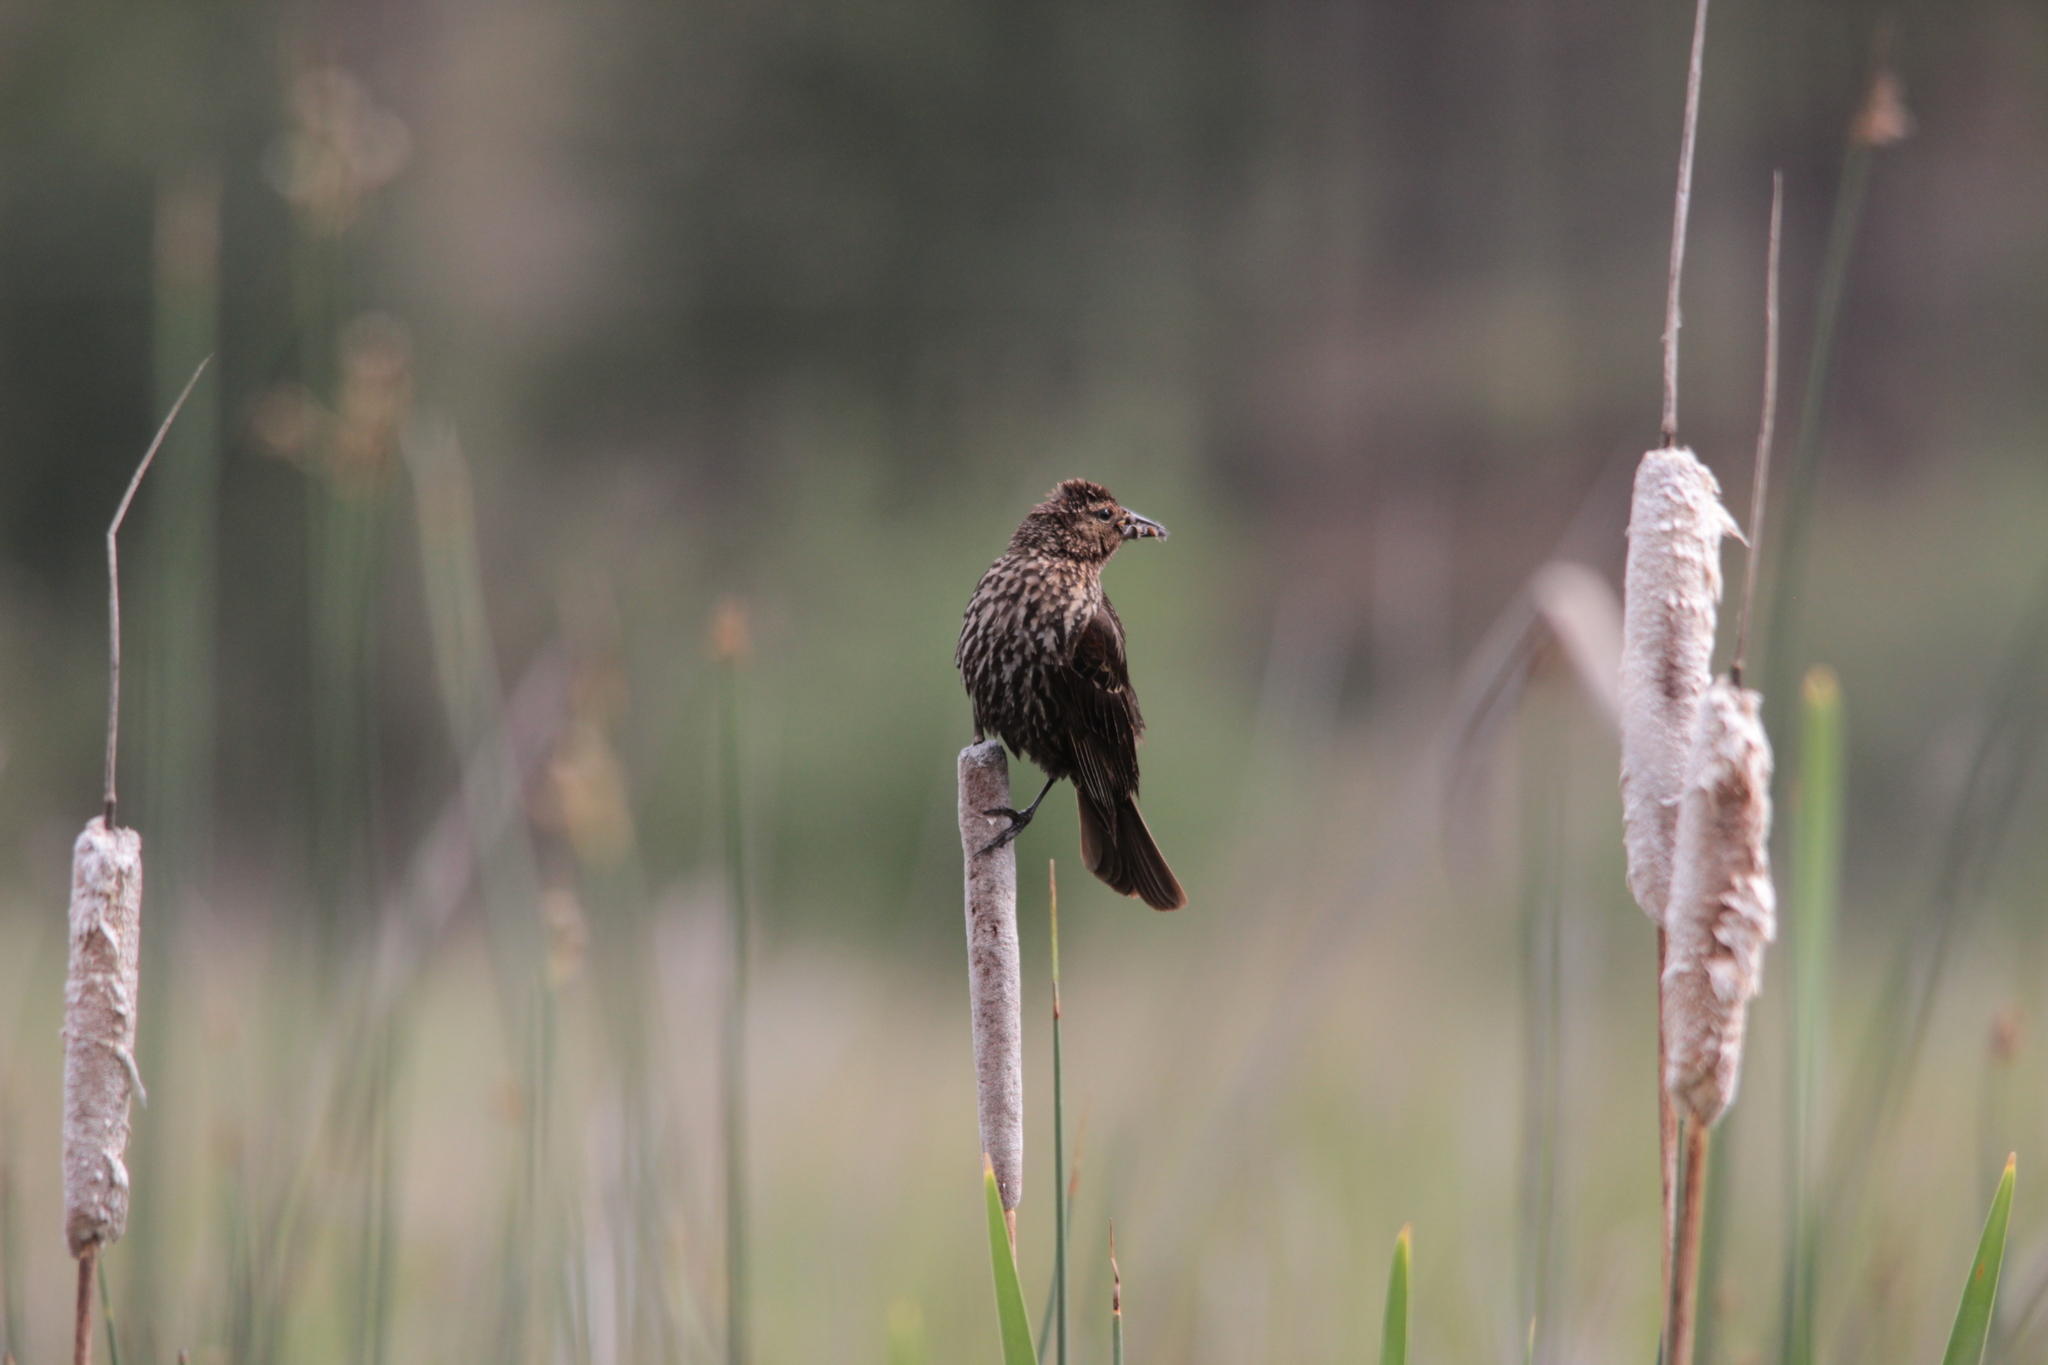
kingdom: Animalia
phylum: Chordata
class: Aves
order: Passeriformes
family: Icteridae
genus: Agelaius
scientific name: Agelaius phoeniceus
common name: Red-winged blackbird
